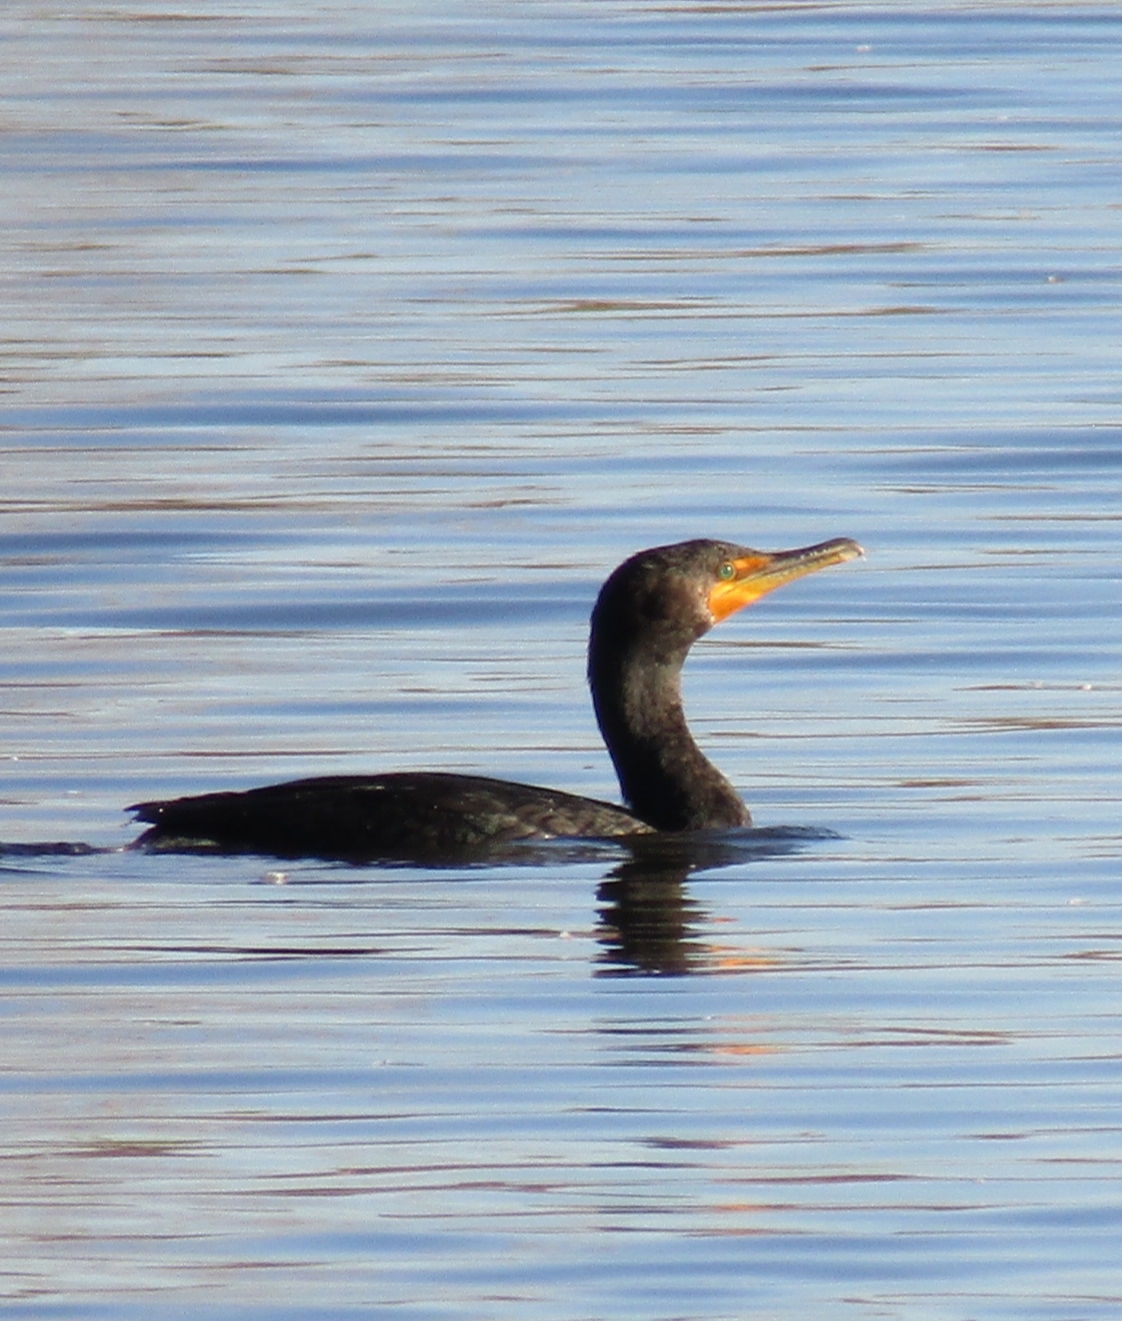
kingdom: Animalia
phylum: Chordata
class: Aves
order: Suliformes
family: Phalacrocoracidae
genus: Phalacrocorax
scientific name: Phalacrocorax auritus
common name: Double-crested cormorant
